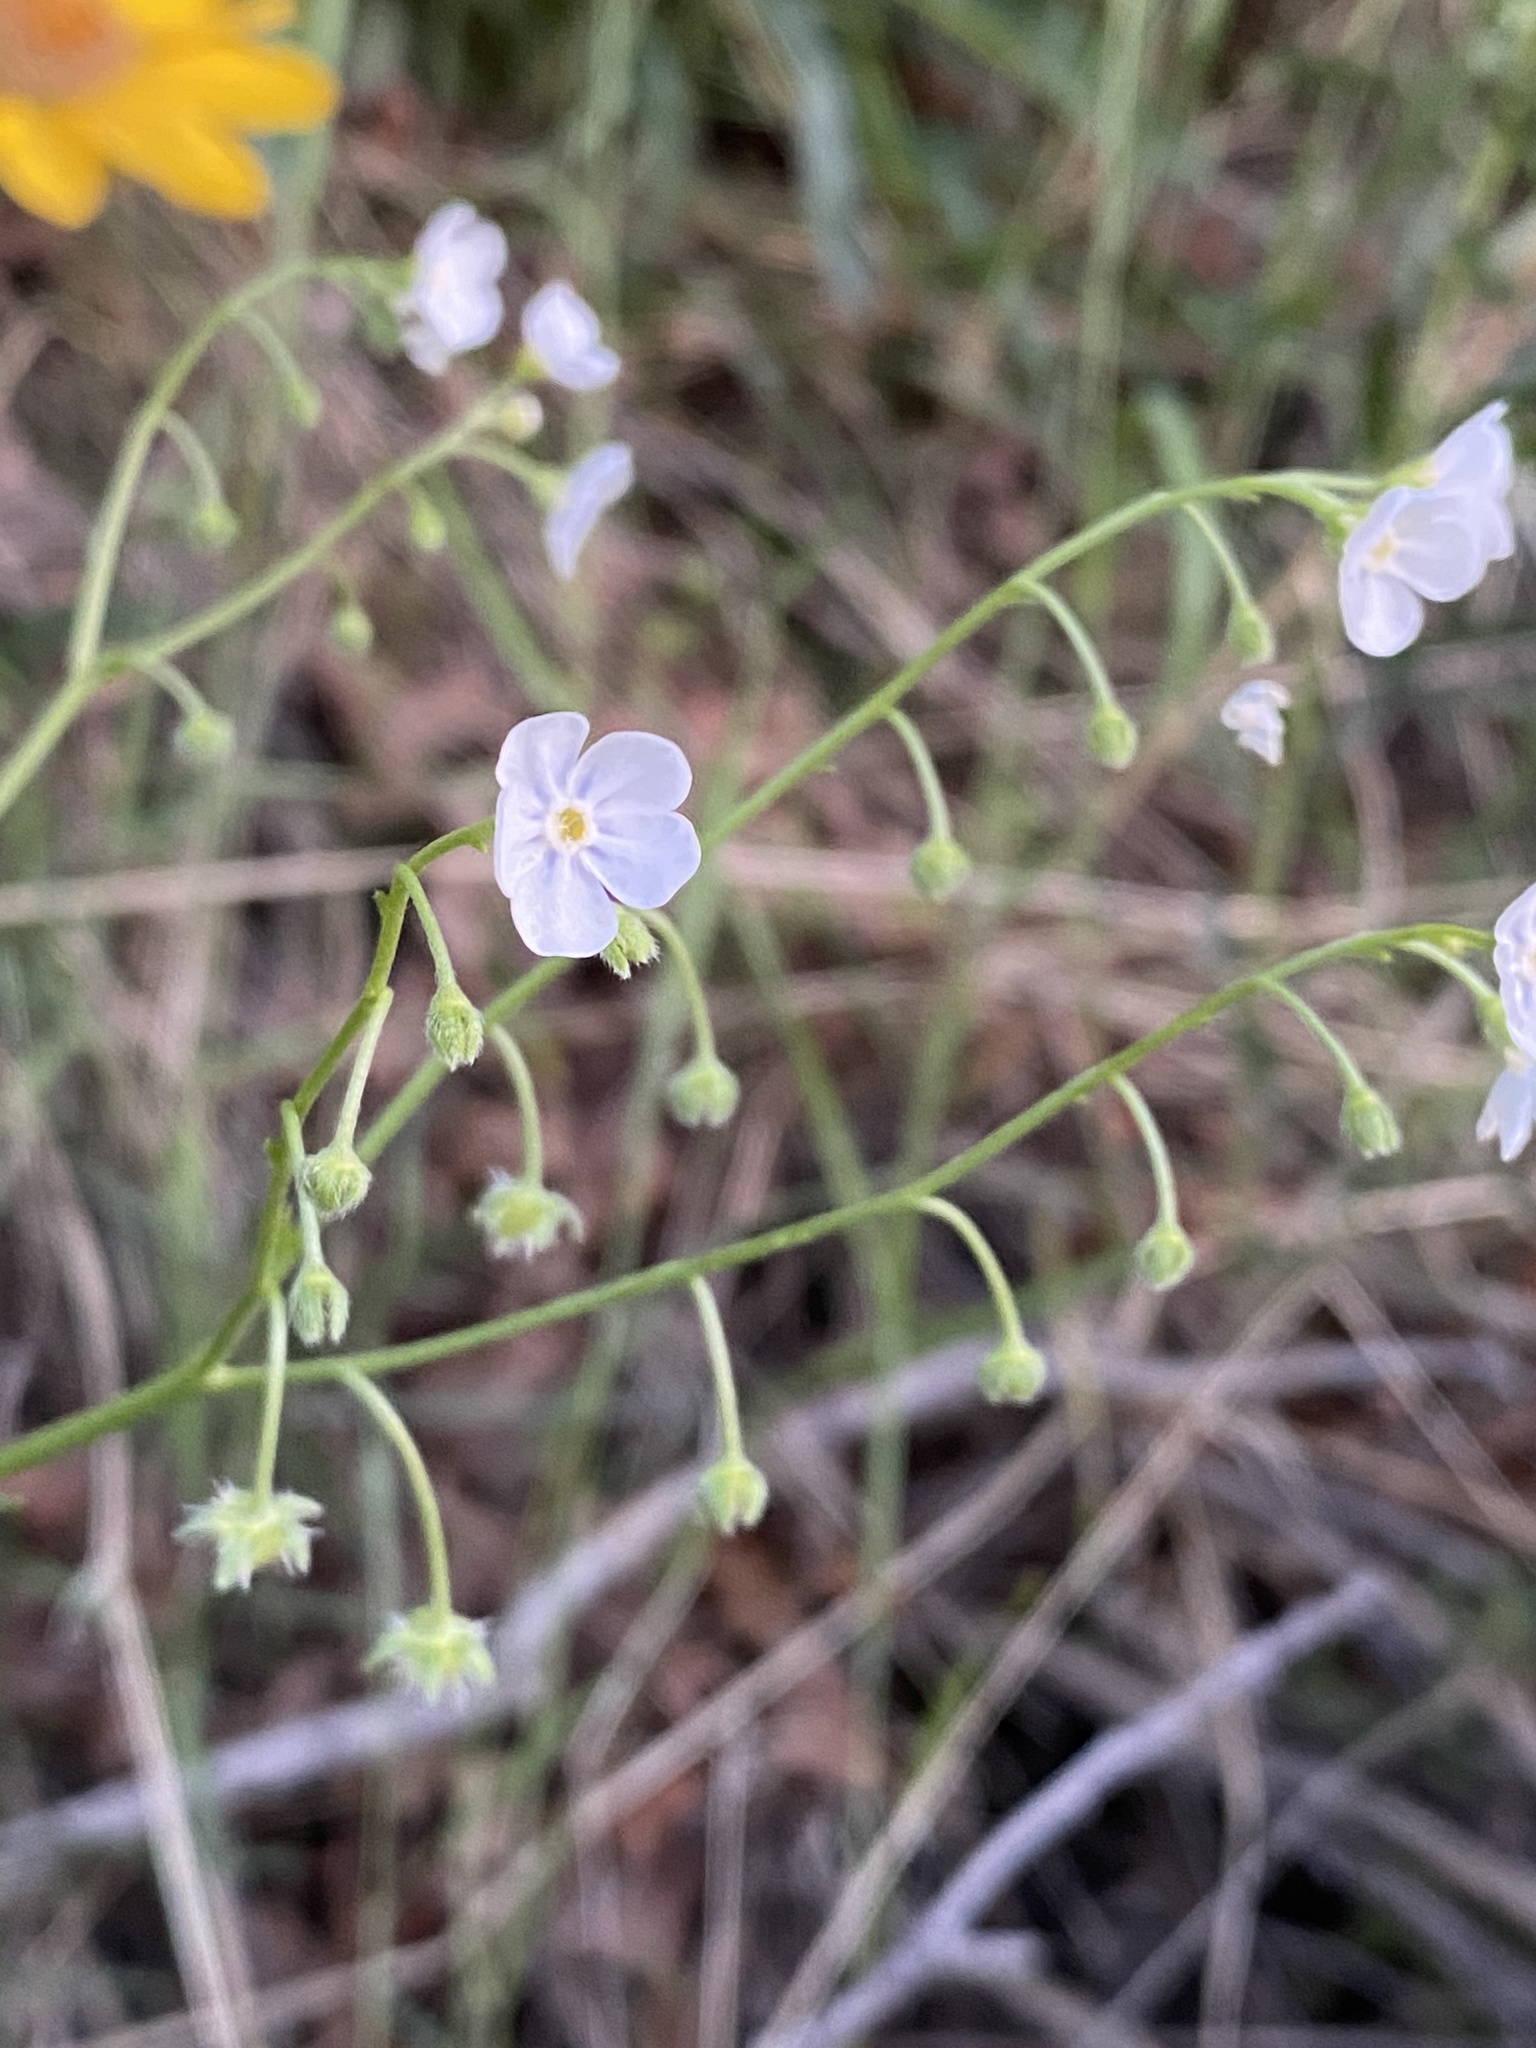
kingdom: Plantae
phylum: Tracheophyta
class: Magnoliopsida
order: Boraginales
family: Boraginaceae
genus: Hackelia
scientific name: Hackelia patens
